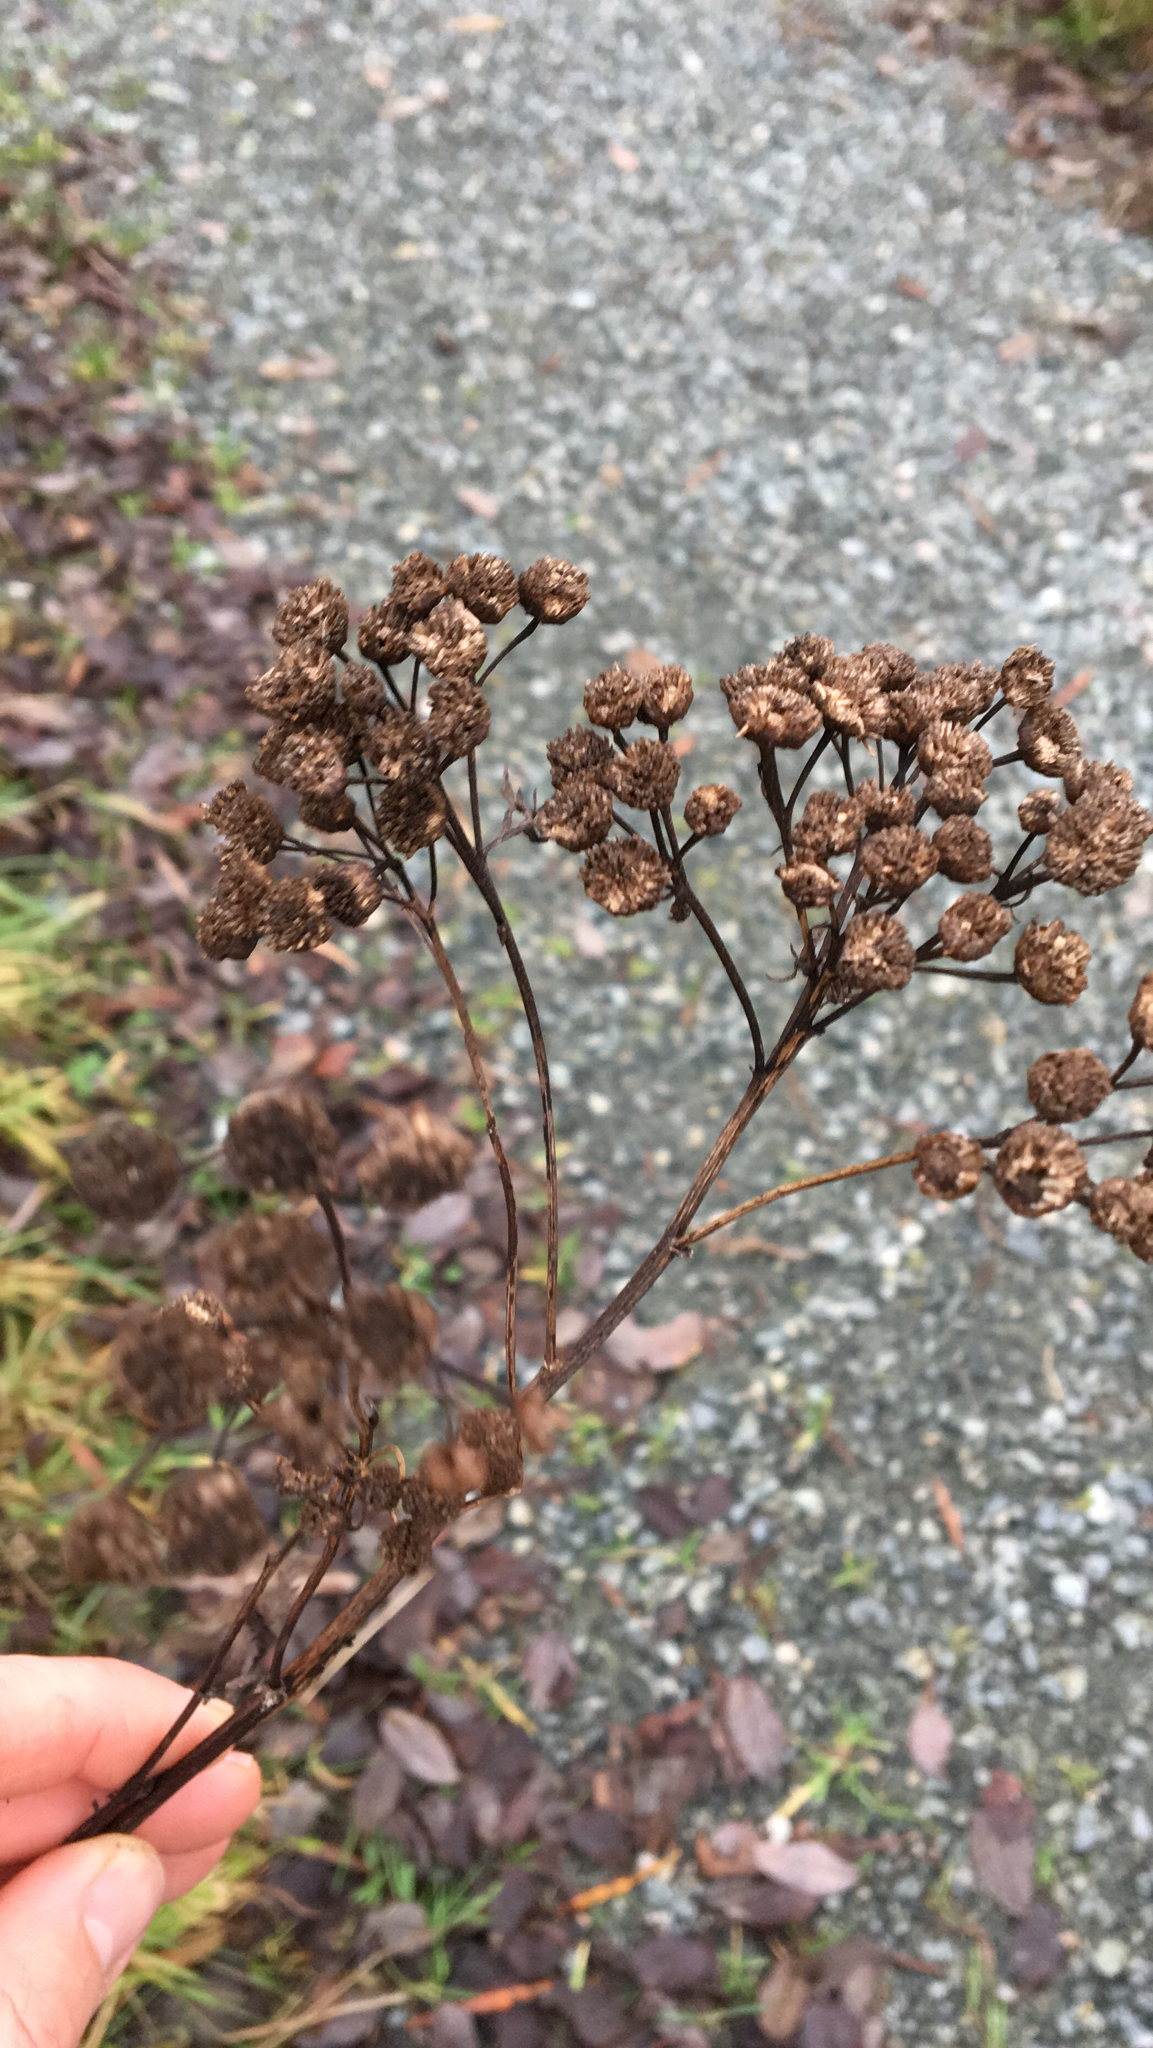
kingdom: Plantae
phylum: Tracheophyta
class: Magnoliopsida
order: Asterales
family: Asteraceae
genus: Tanacetum
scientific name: Tanacetum vulgare
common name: Common tansy
